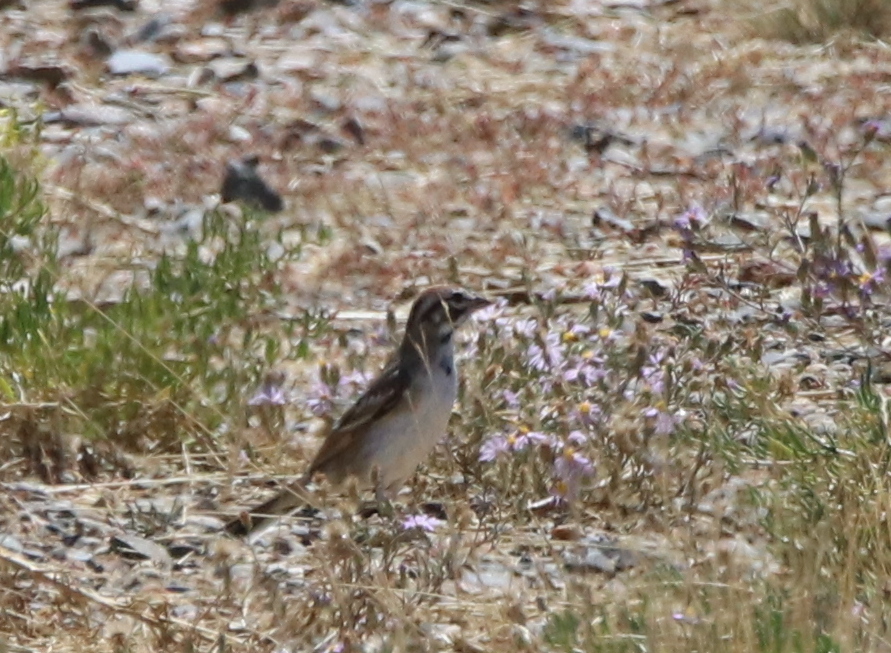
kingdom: Animalia
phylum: Chordata
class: Aves
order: Passeriformes
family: Passerellidae
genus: Chondestes
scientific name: Chondestes grammacus
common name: Lark sparrow
